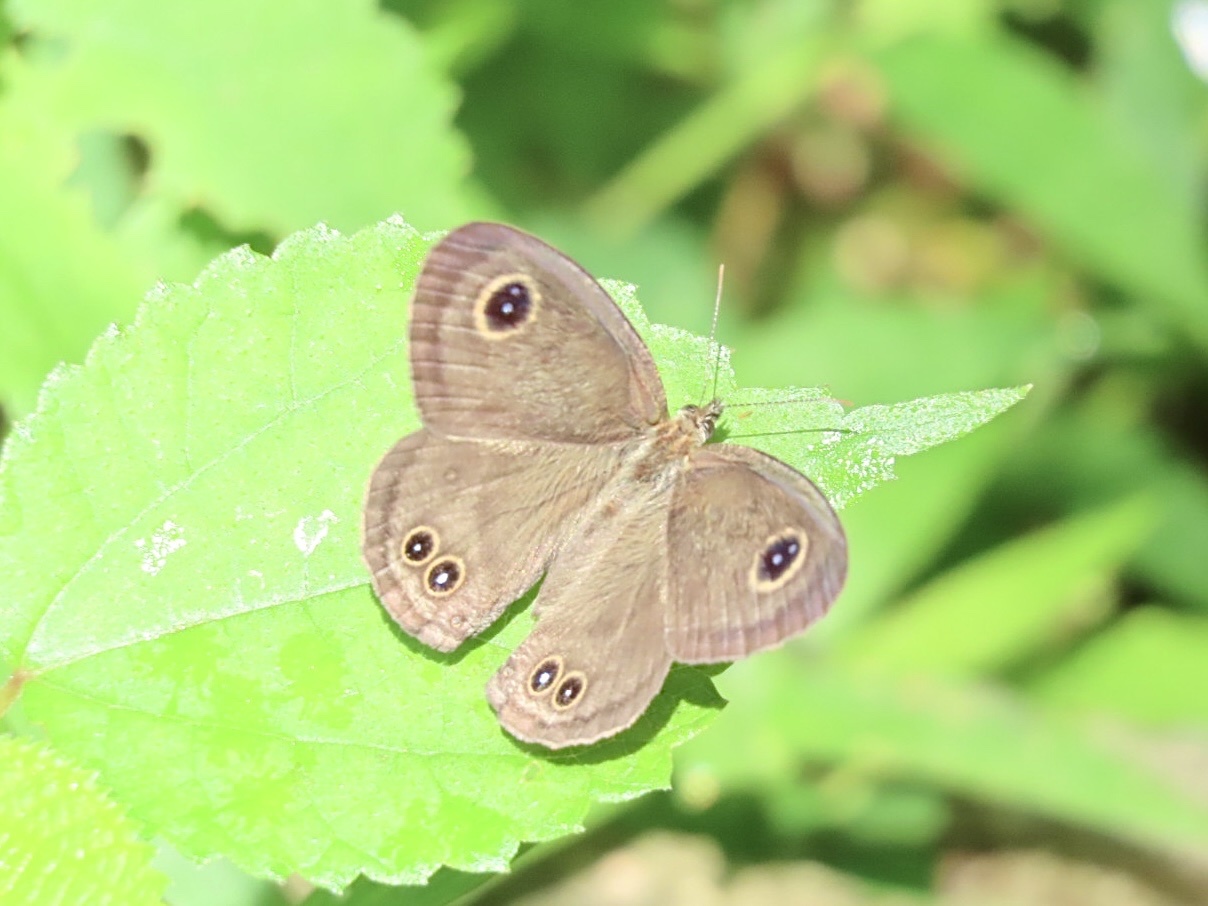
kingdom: Animalia
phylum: Arthropoda
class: Insecta
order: Lepidoptera
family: Nymphalidae
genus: Ypthima
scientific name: Ypthima baldus
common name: Common five-ring
